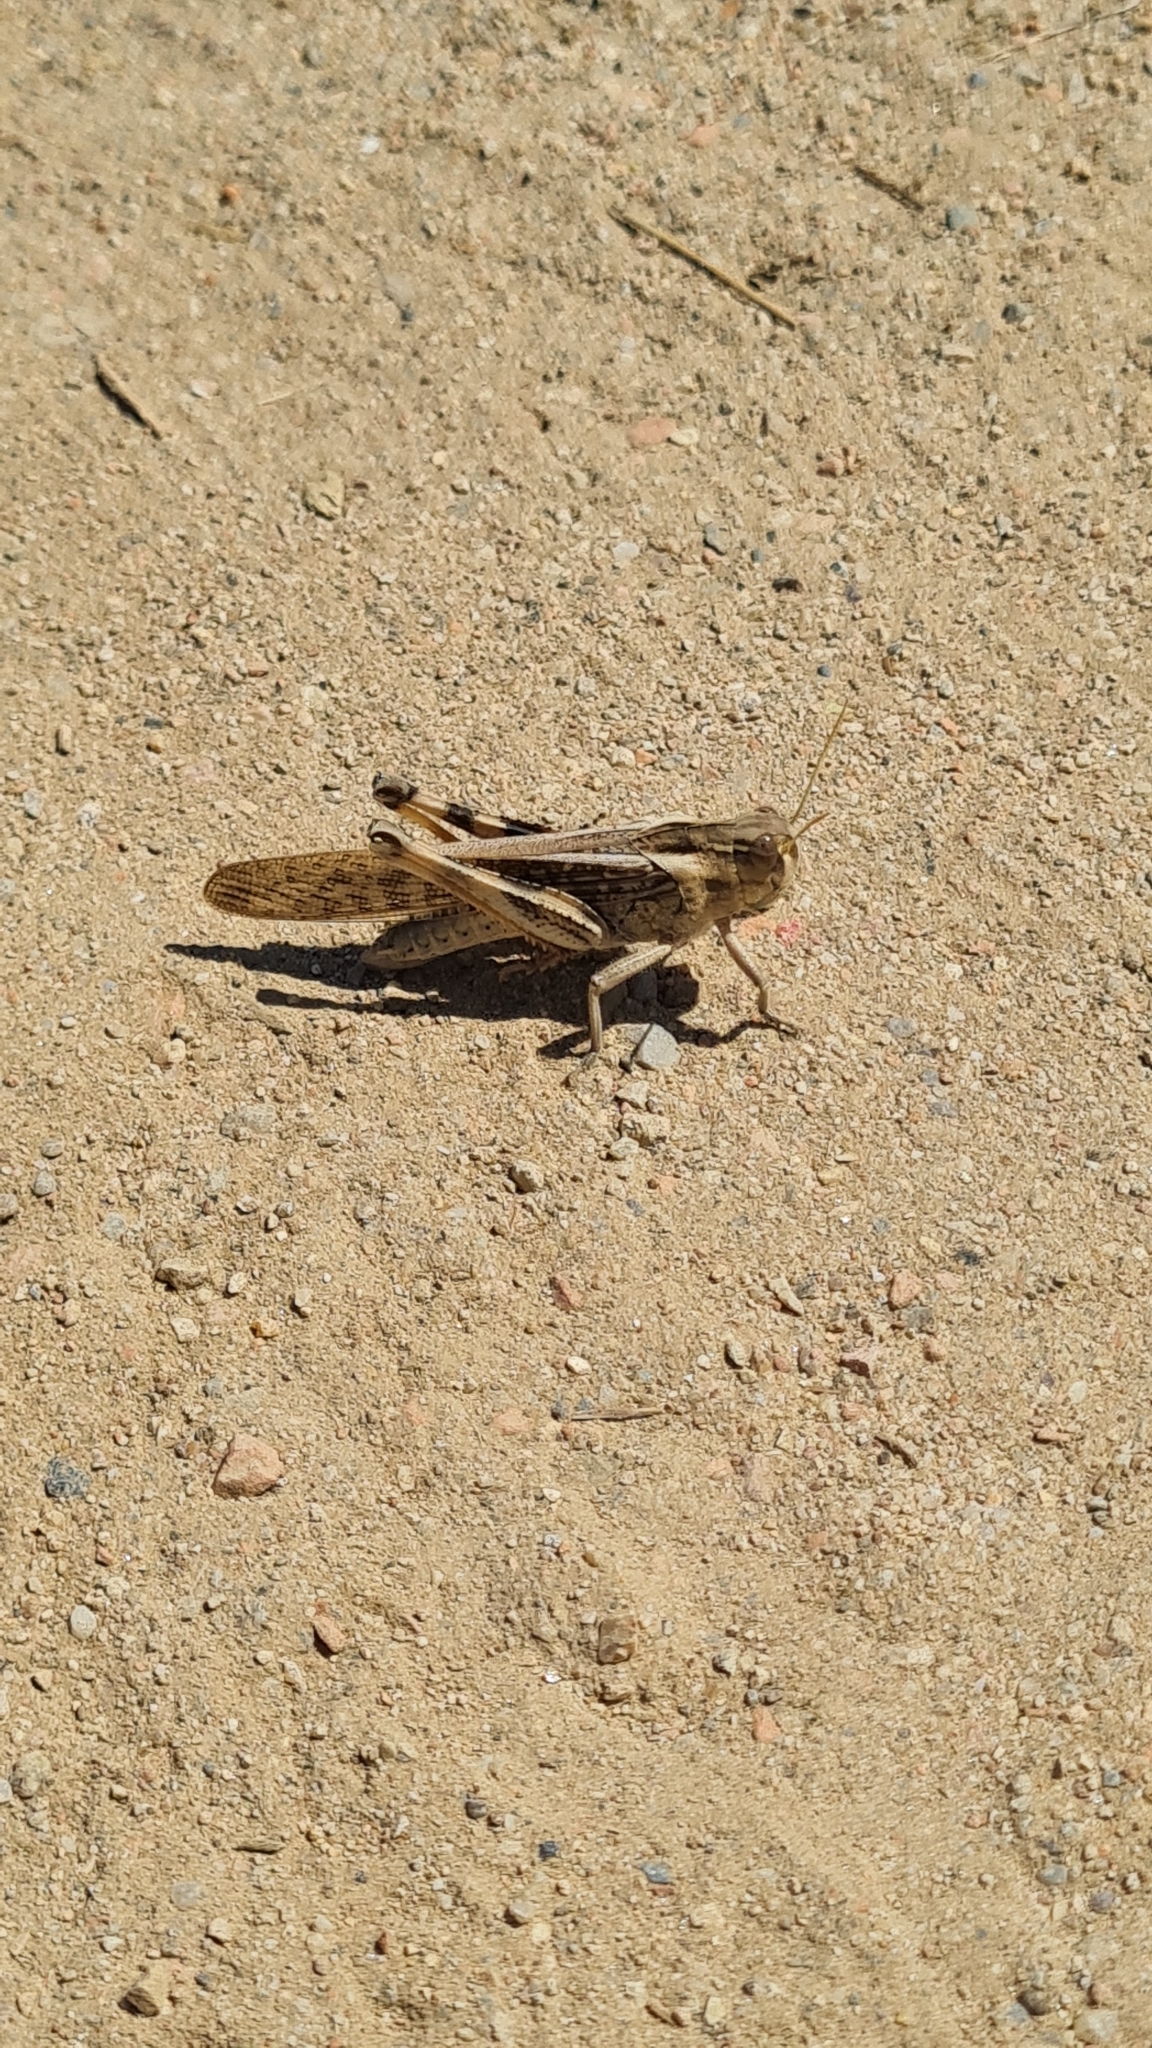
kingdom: Animalia
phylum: Arthropoda
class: Insecta
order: Orthoptera
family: Acrididae
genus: Locusta
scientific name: Locusta migratoria
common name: Migratory locust
